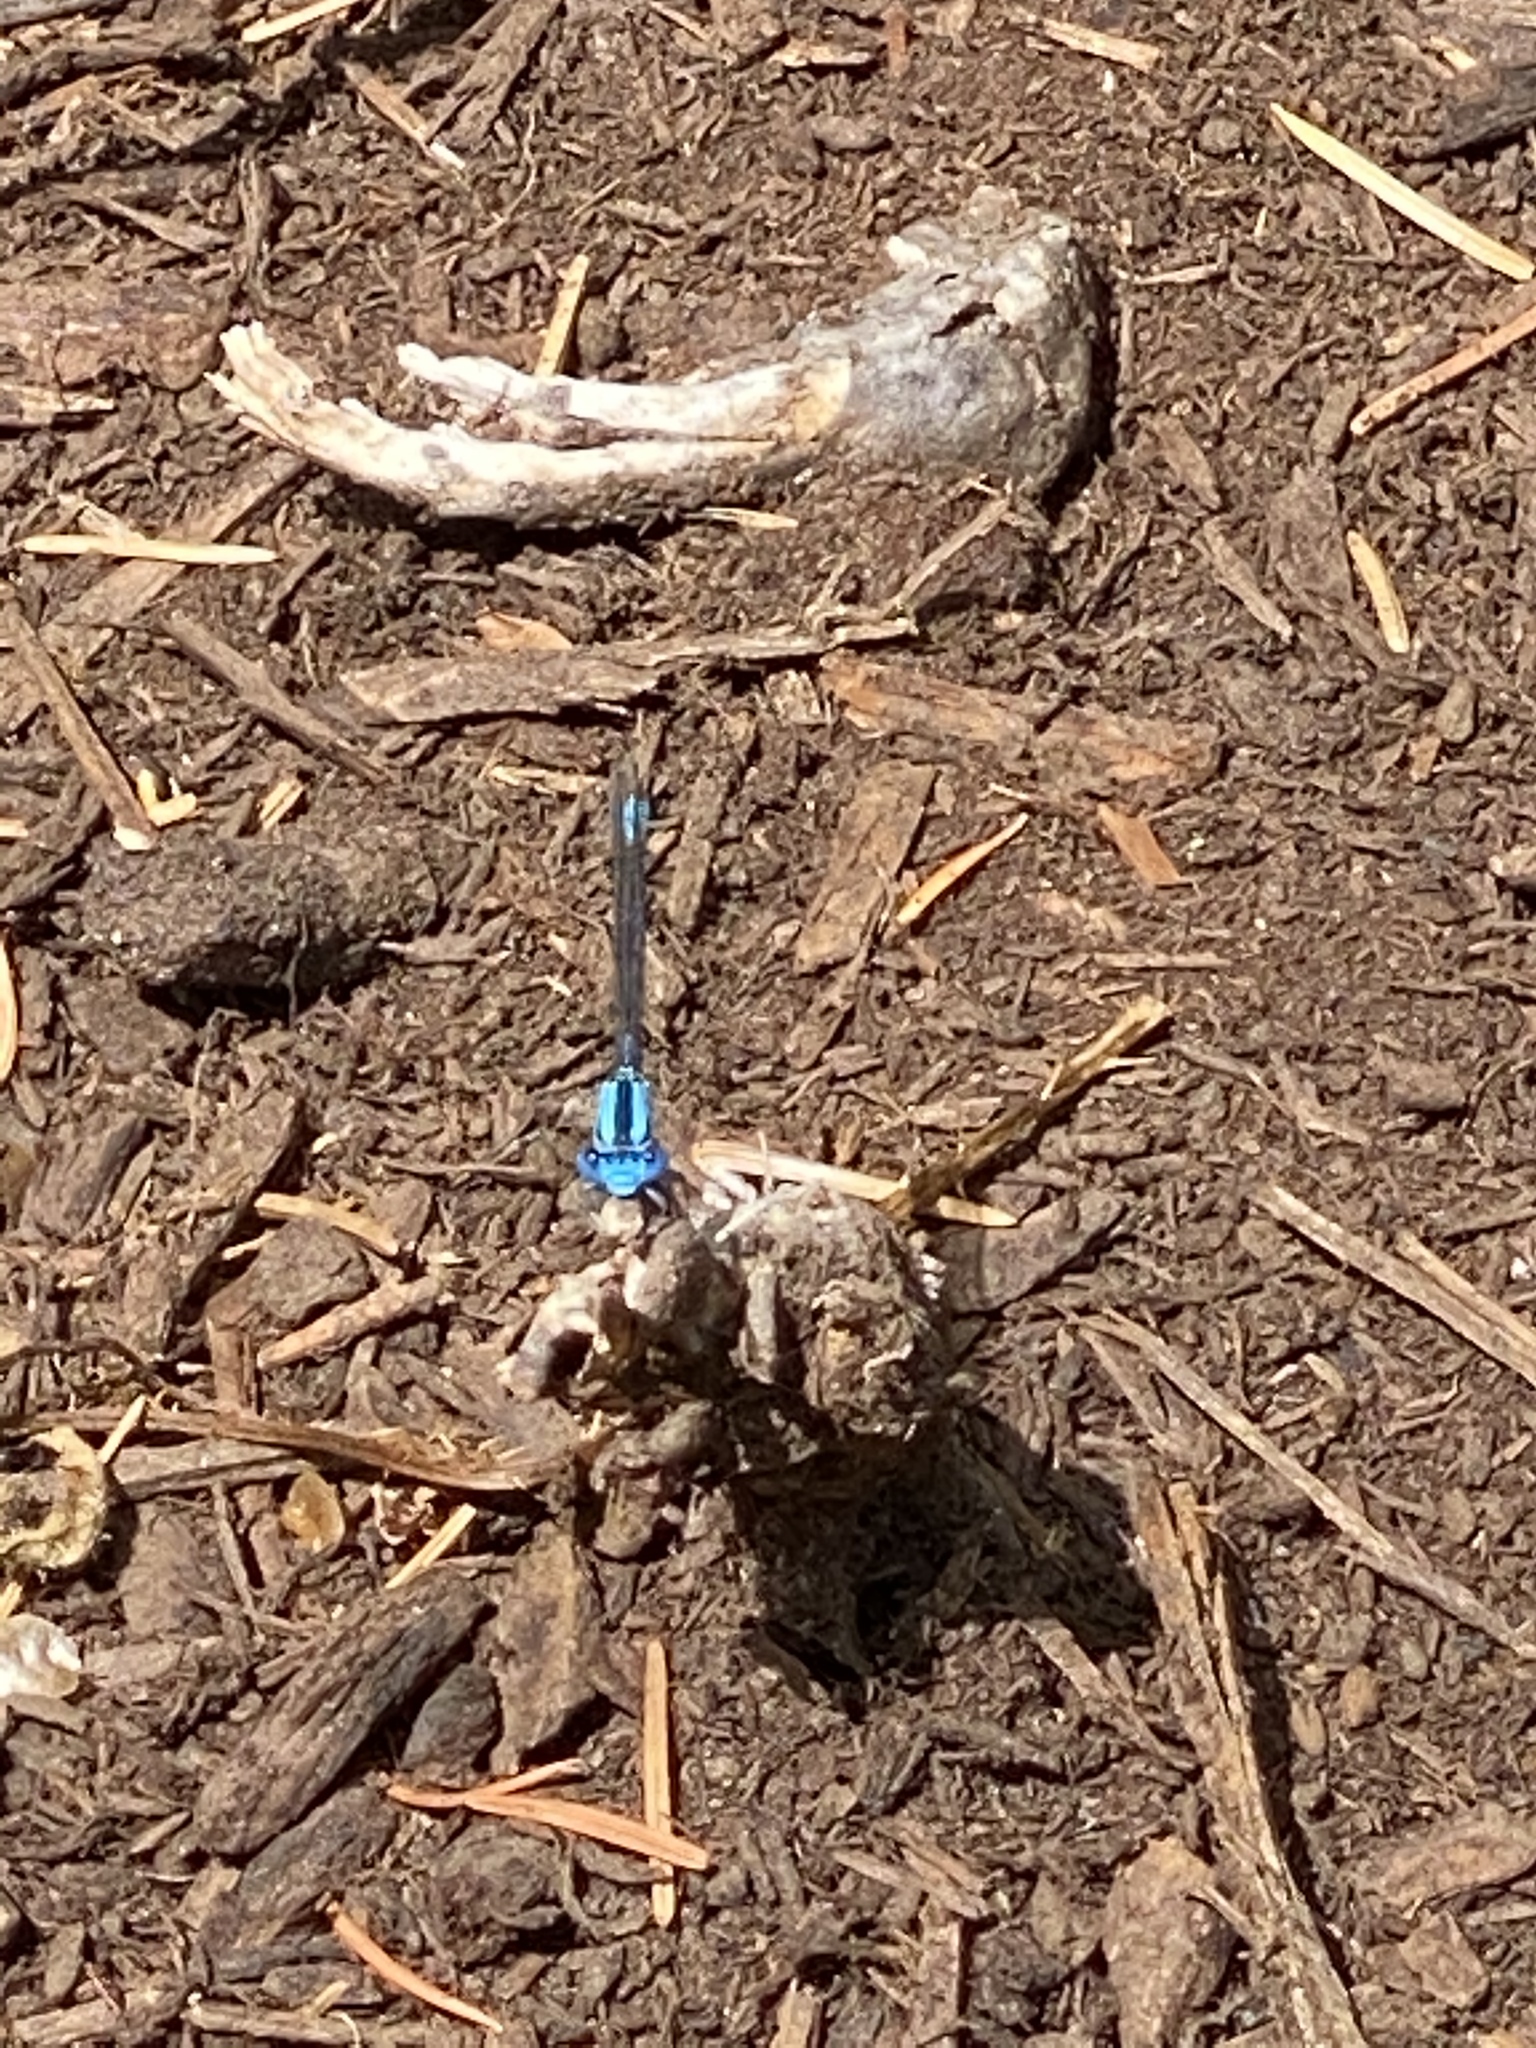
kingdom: Animalia
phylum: Arthropoda
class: Insecta
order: Odonata
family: Coenagrionidae
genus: Argia
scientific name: Argia vivida
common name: Vivid dancer
